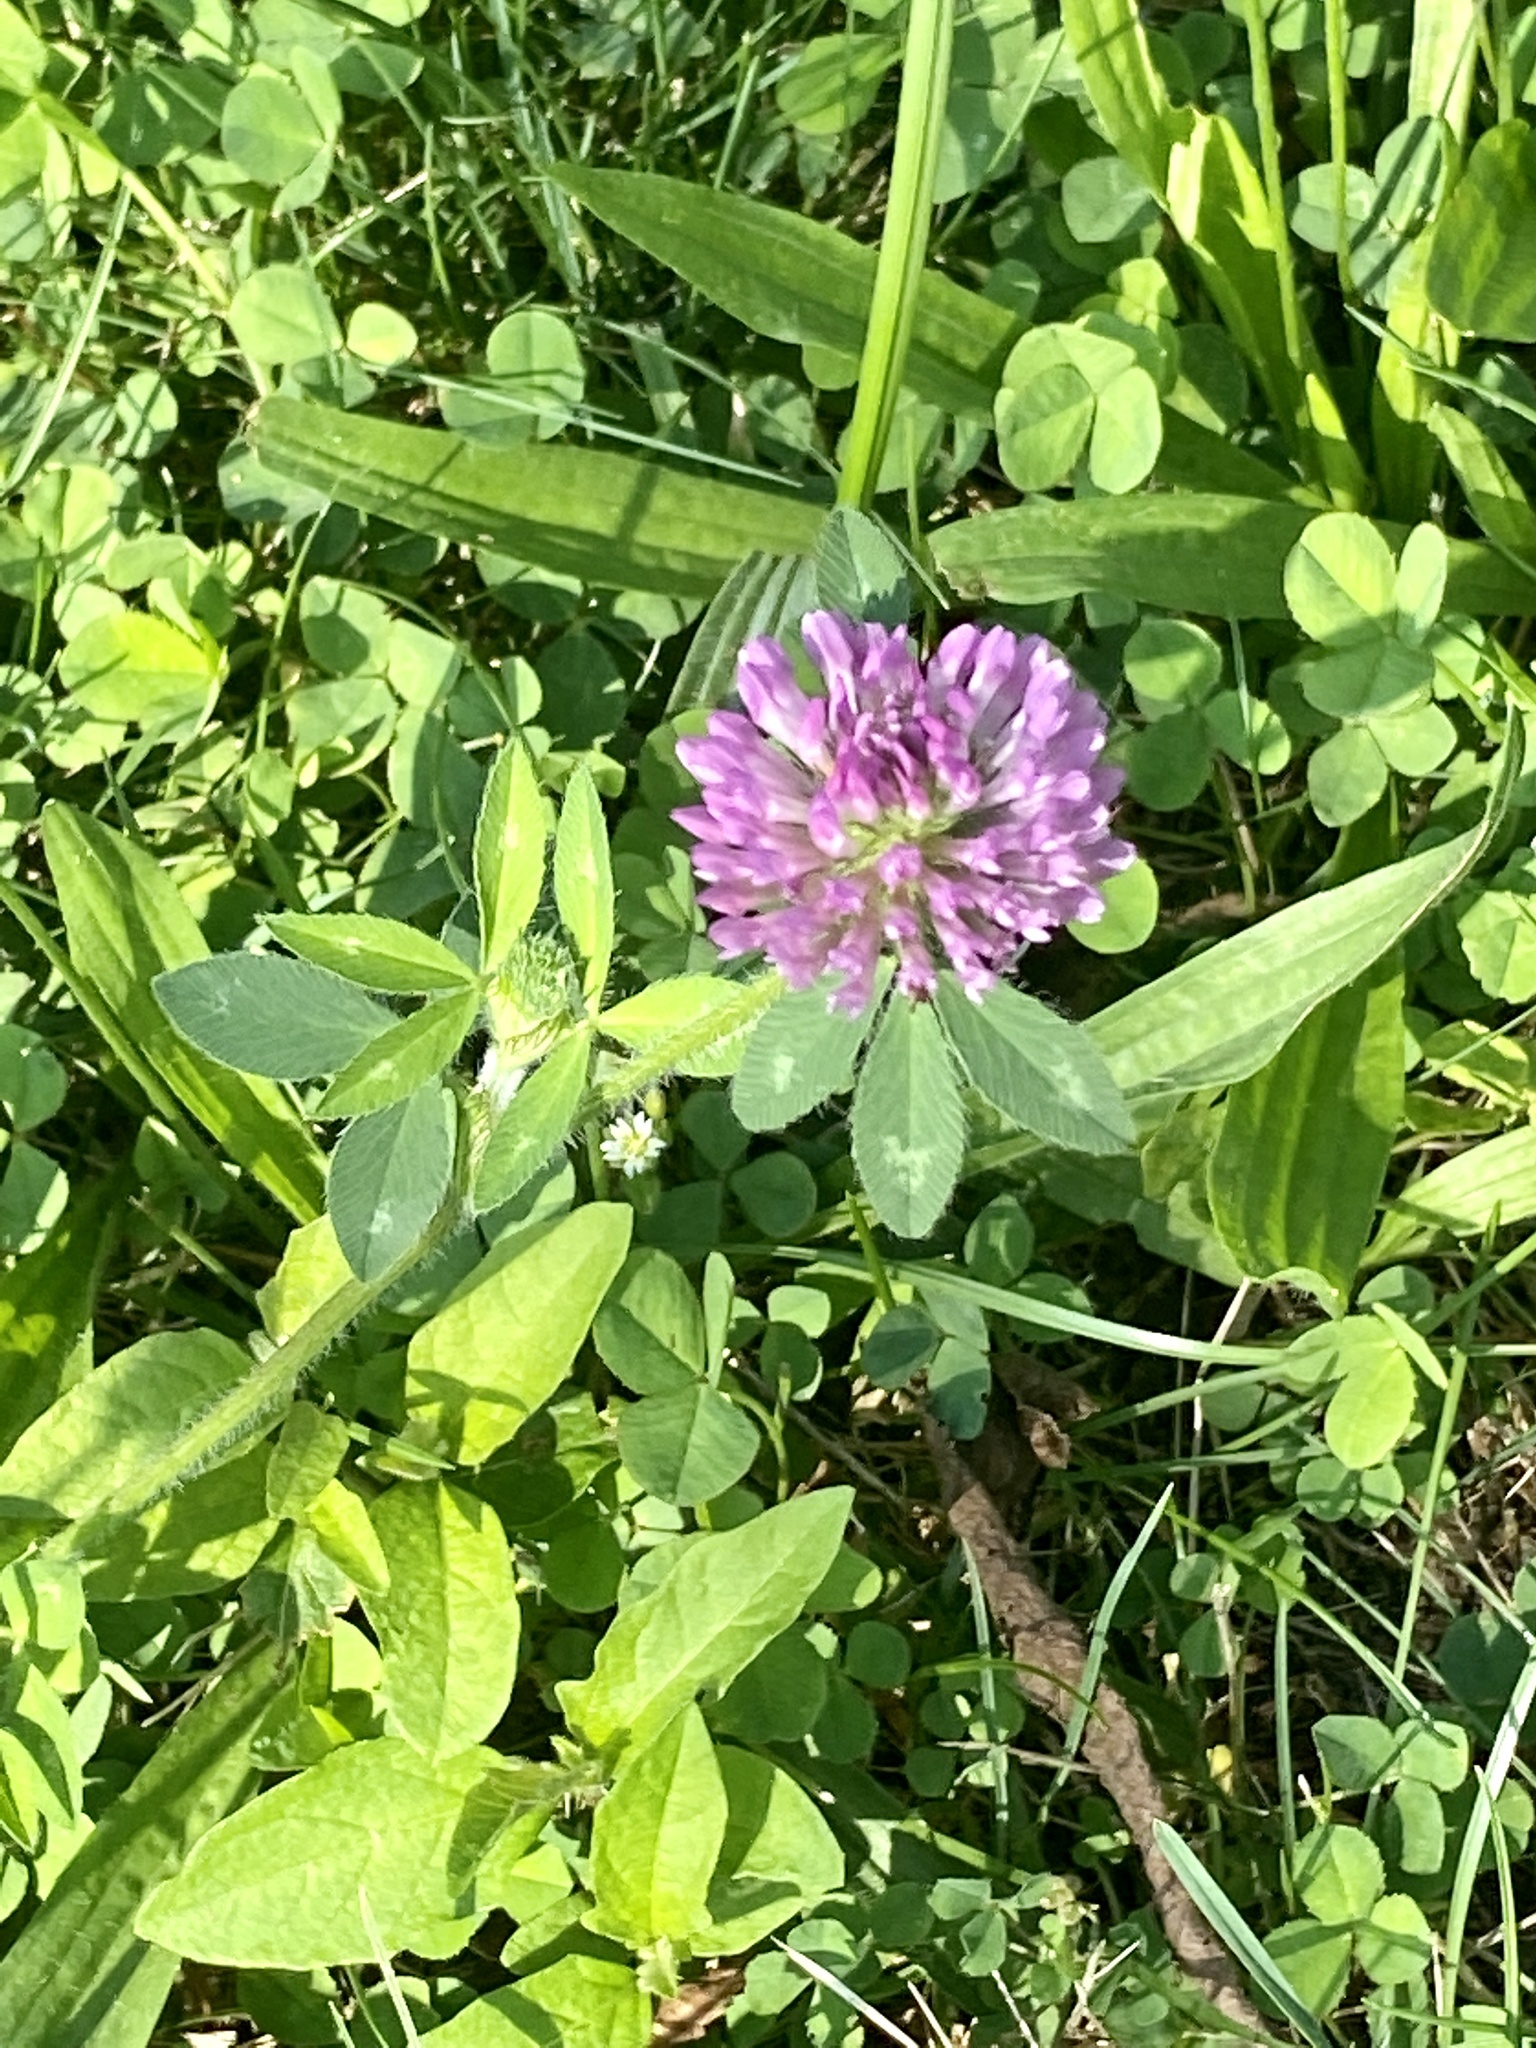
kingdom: Plantae
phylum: Tracheophyta
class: Magnoliopsida
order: Fabales
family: Fabaceae
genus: Trifolium
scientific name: Trifolium pratense
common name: Red clover
